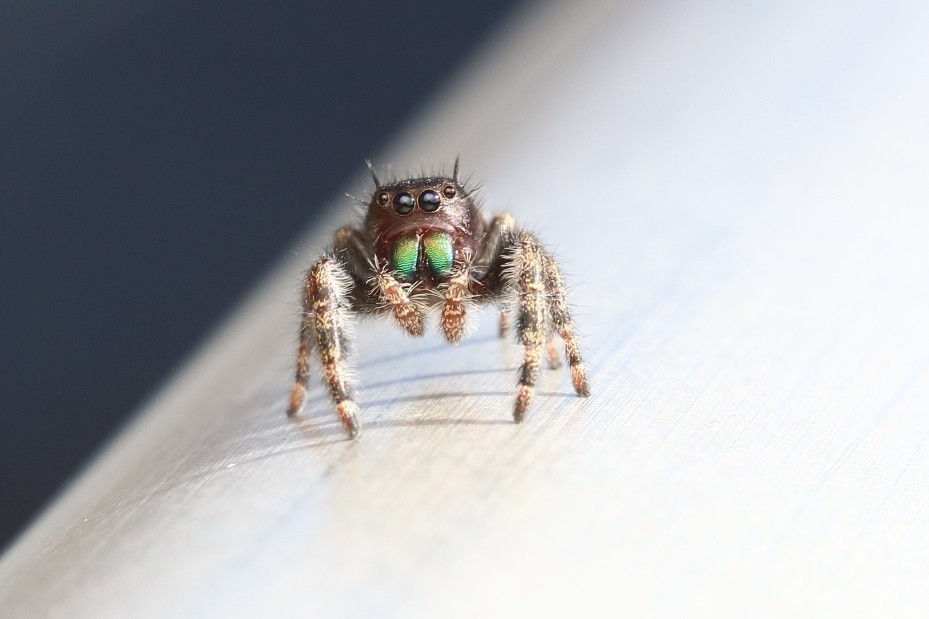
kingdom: Animalia
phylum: Arthropoda
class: Arachnida
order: Araneae
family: Salticidae
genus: Phidippus
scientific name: Phidippus audax
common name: Bold jumper
